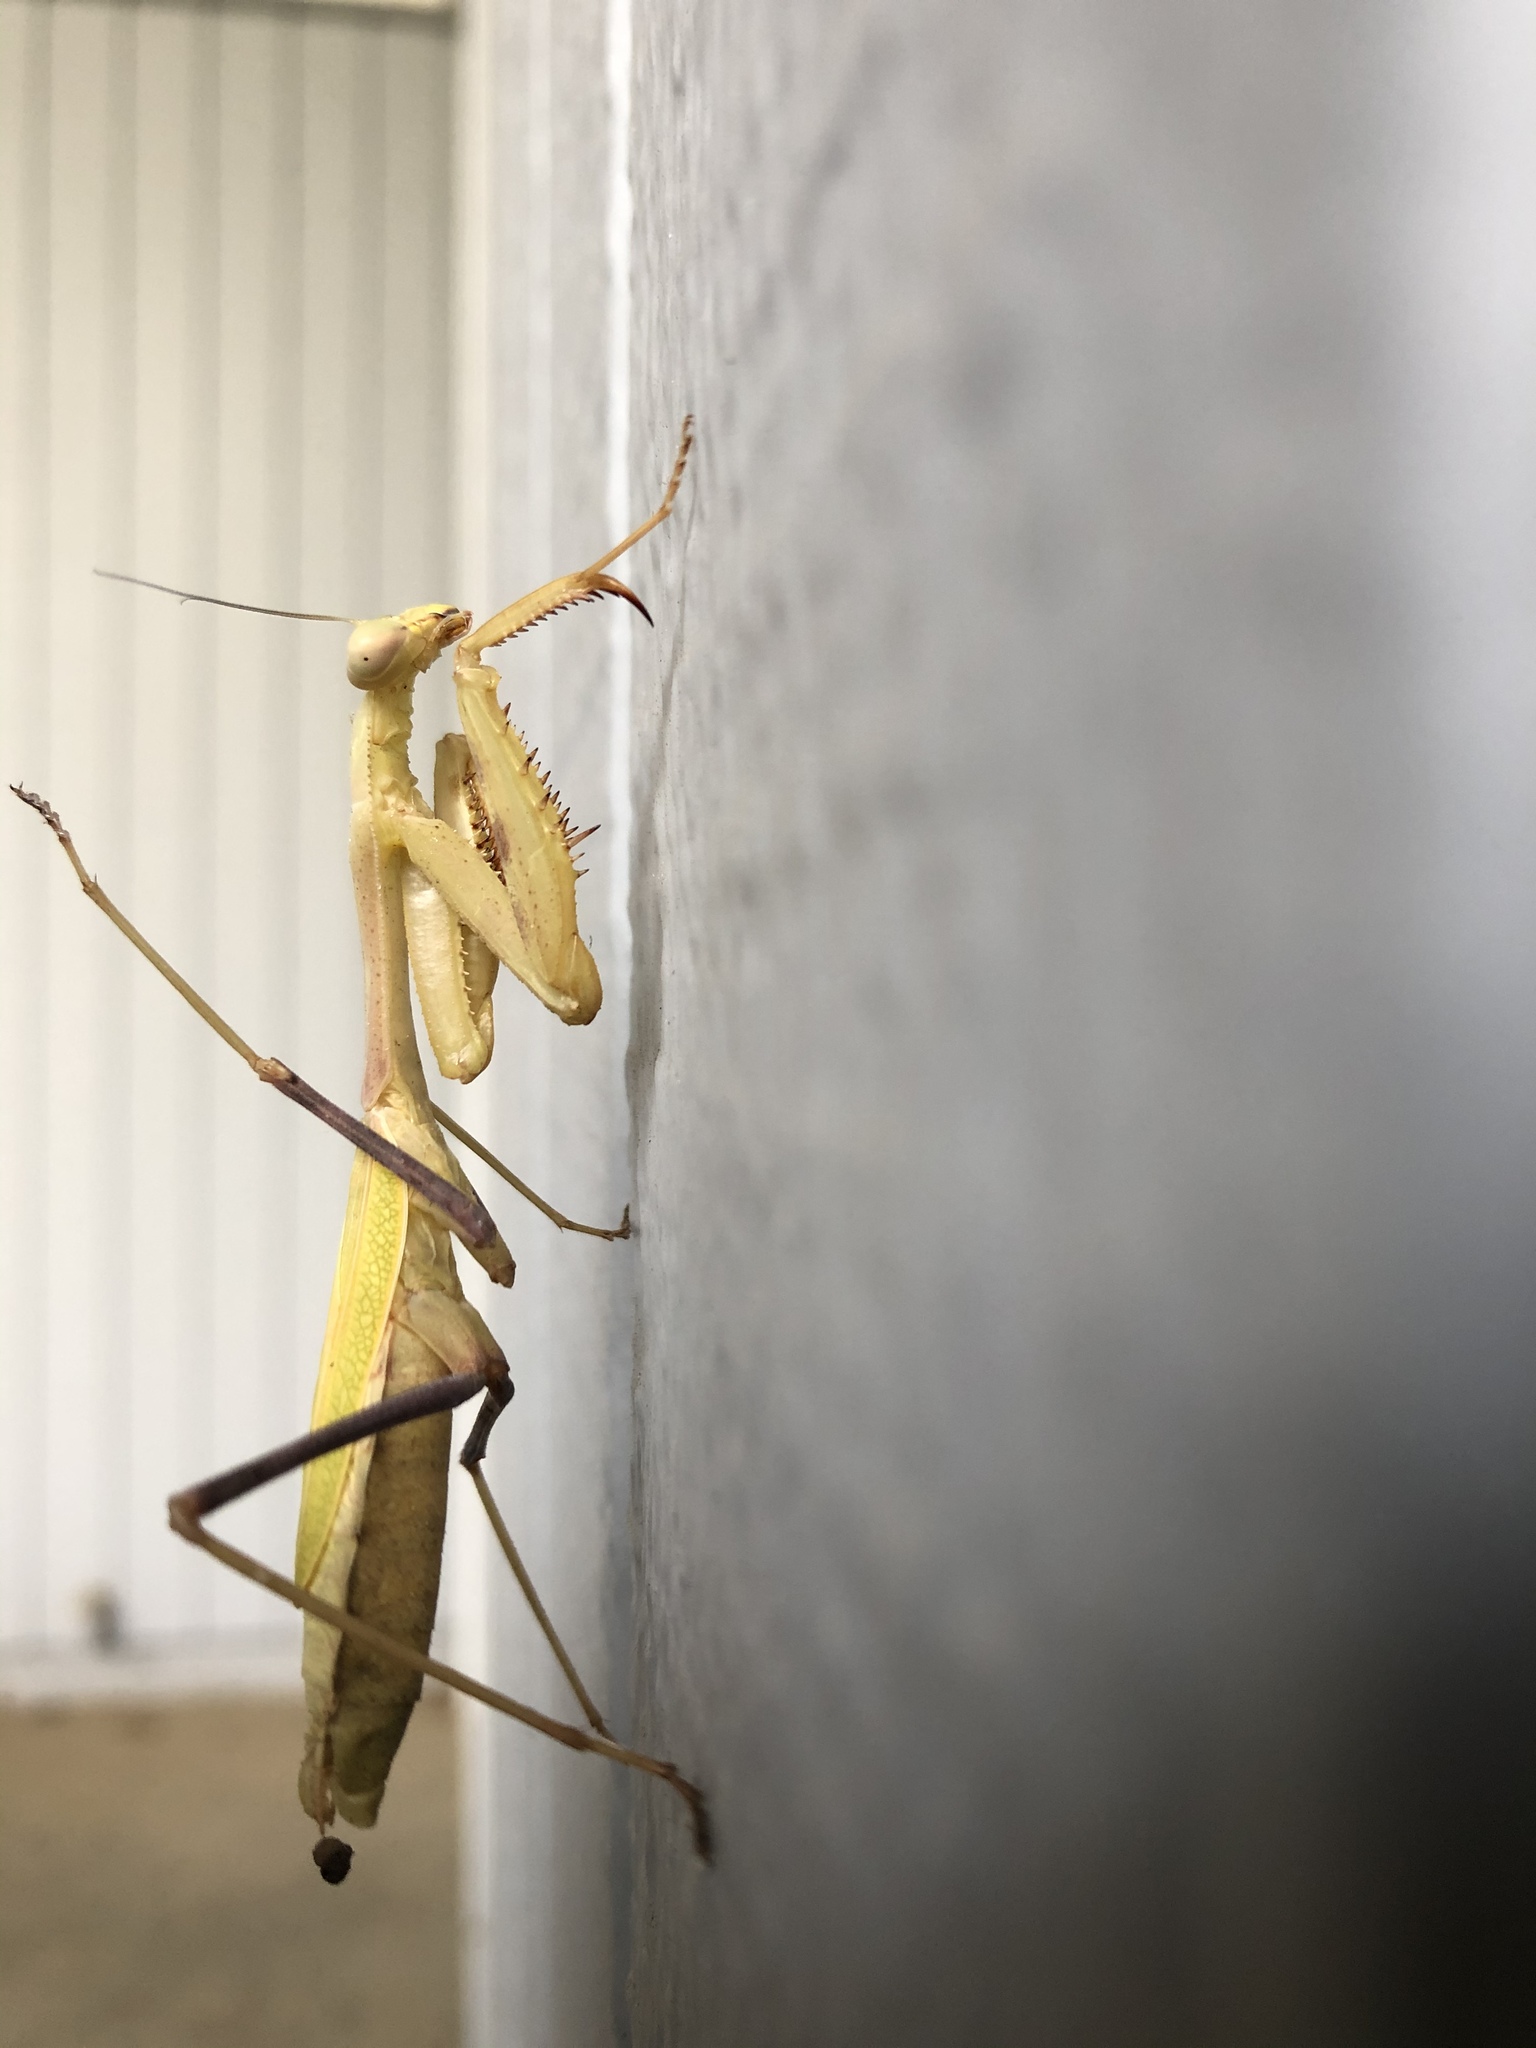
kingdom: Animalia
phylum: Arthropoda
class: Insecta
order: Mantodea
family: Mantidae
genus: Stagmomantis
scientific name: Stagmomantis limbata
